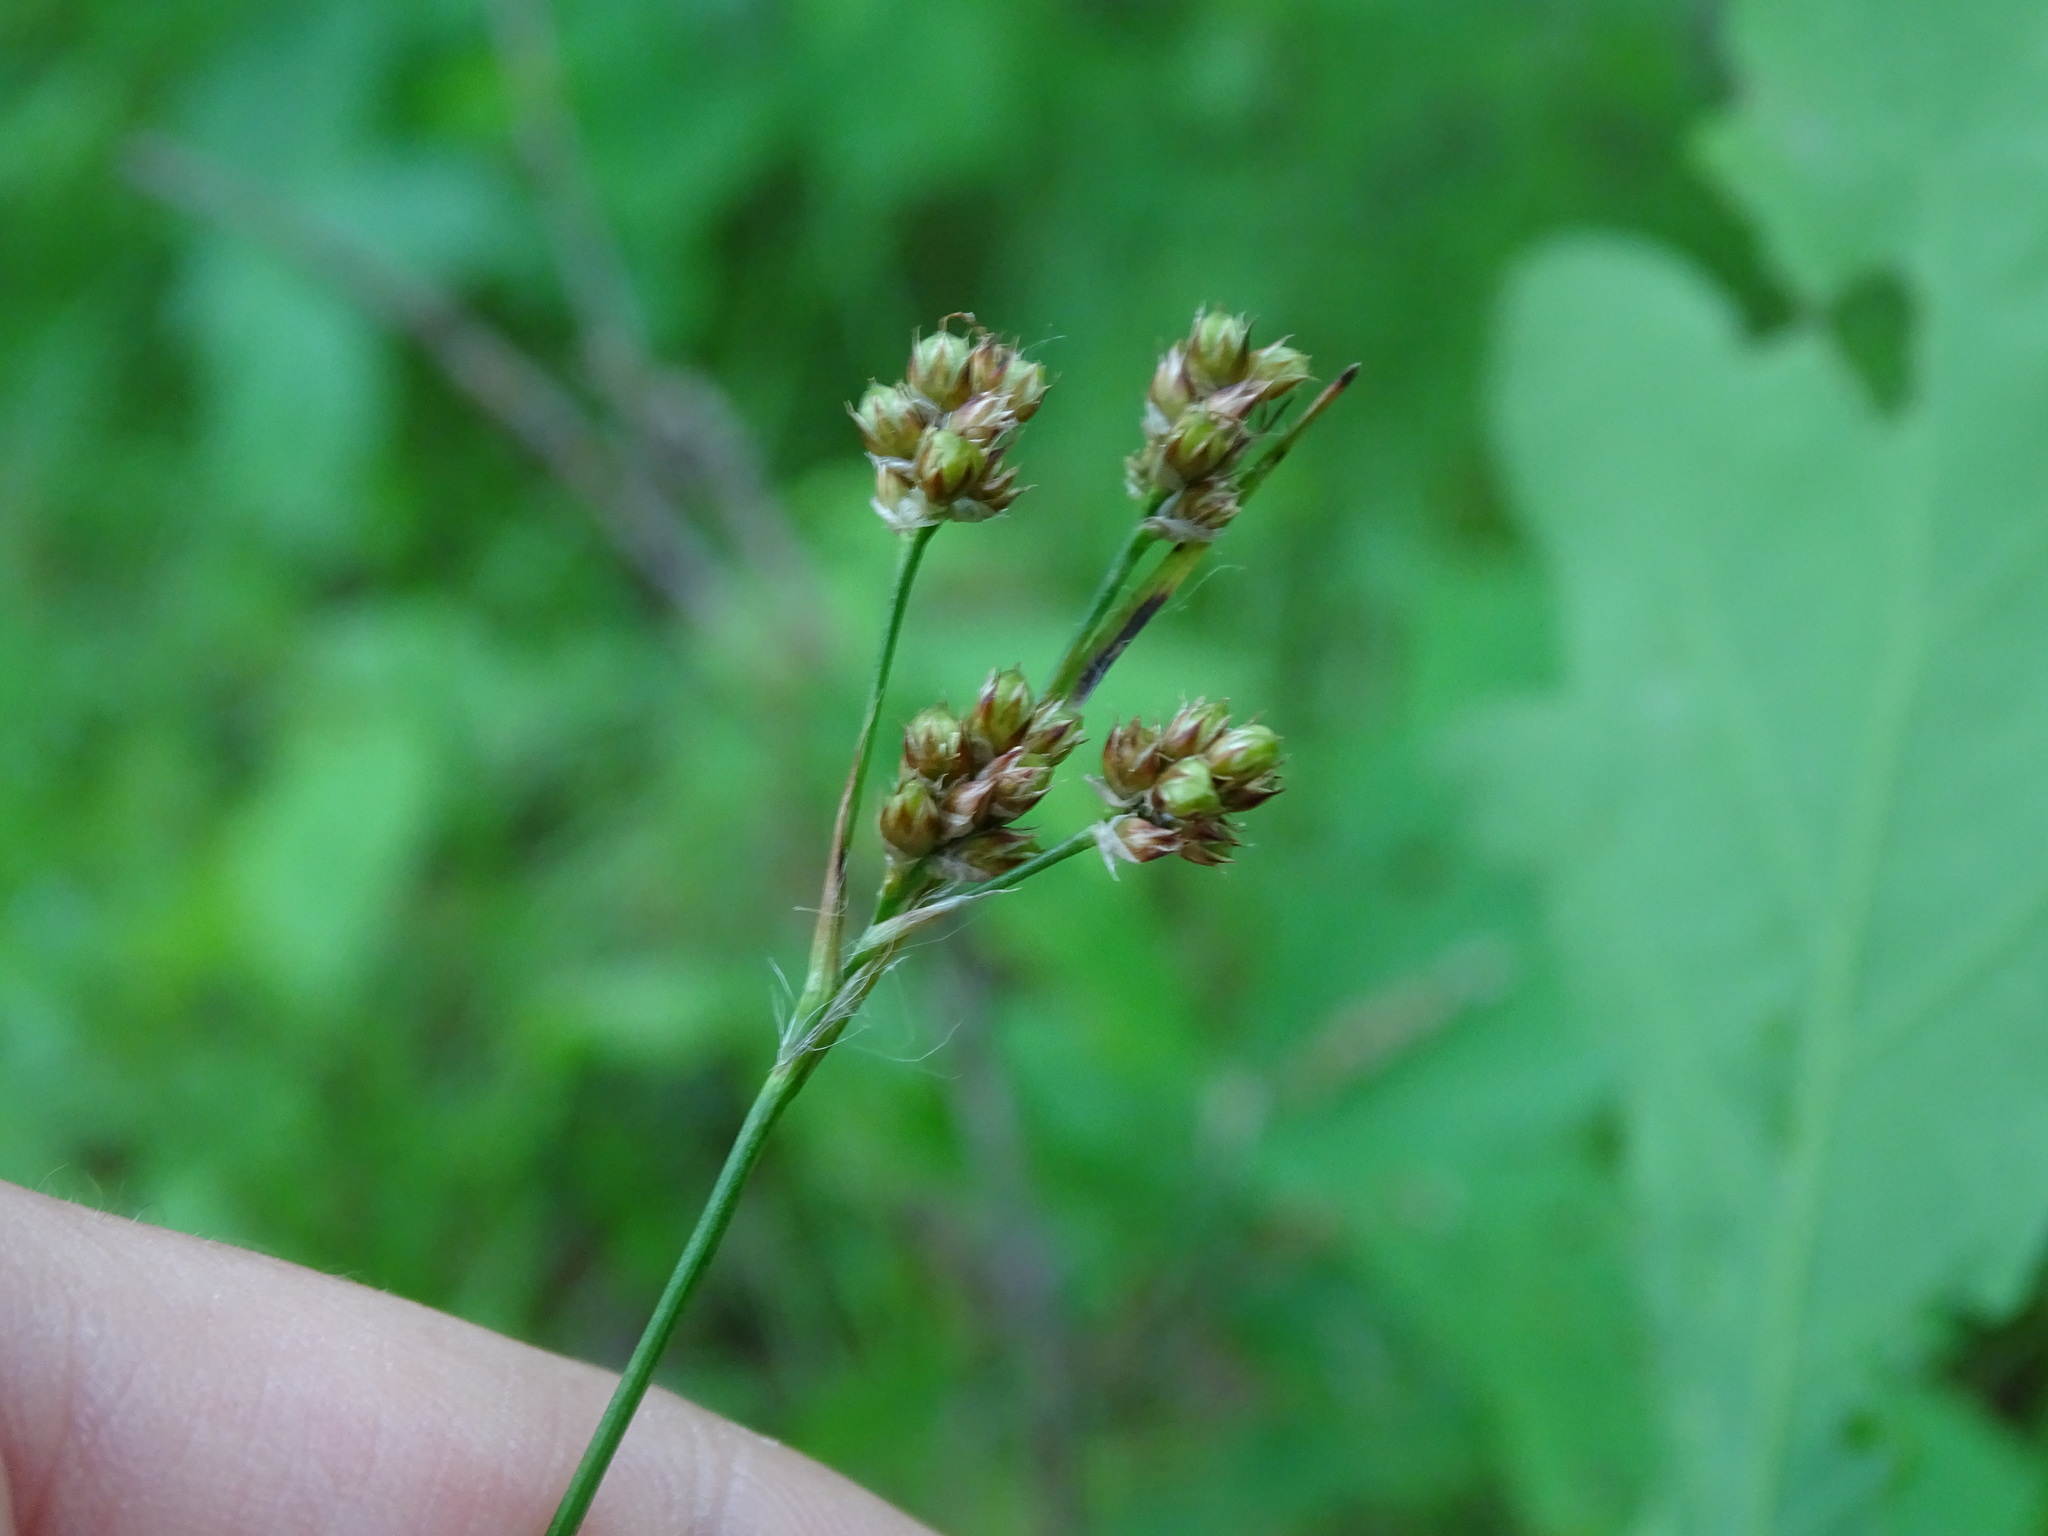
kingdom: Plantae
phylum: Tracheophyta
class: Liliopsida
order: Poales
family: Juncaceae
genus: Luzula
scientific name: Luzula multiflora
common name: Heath wood-rush
